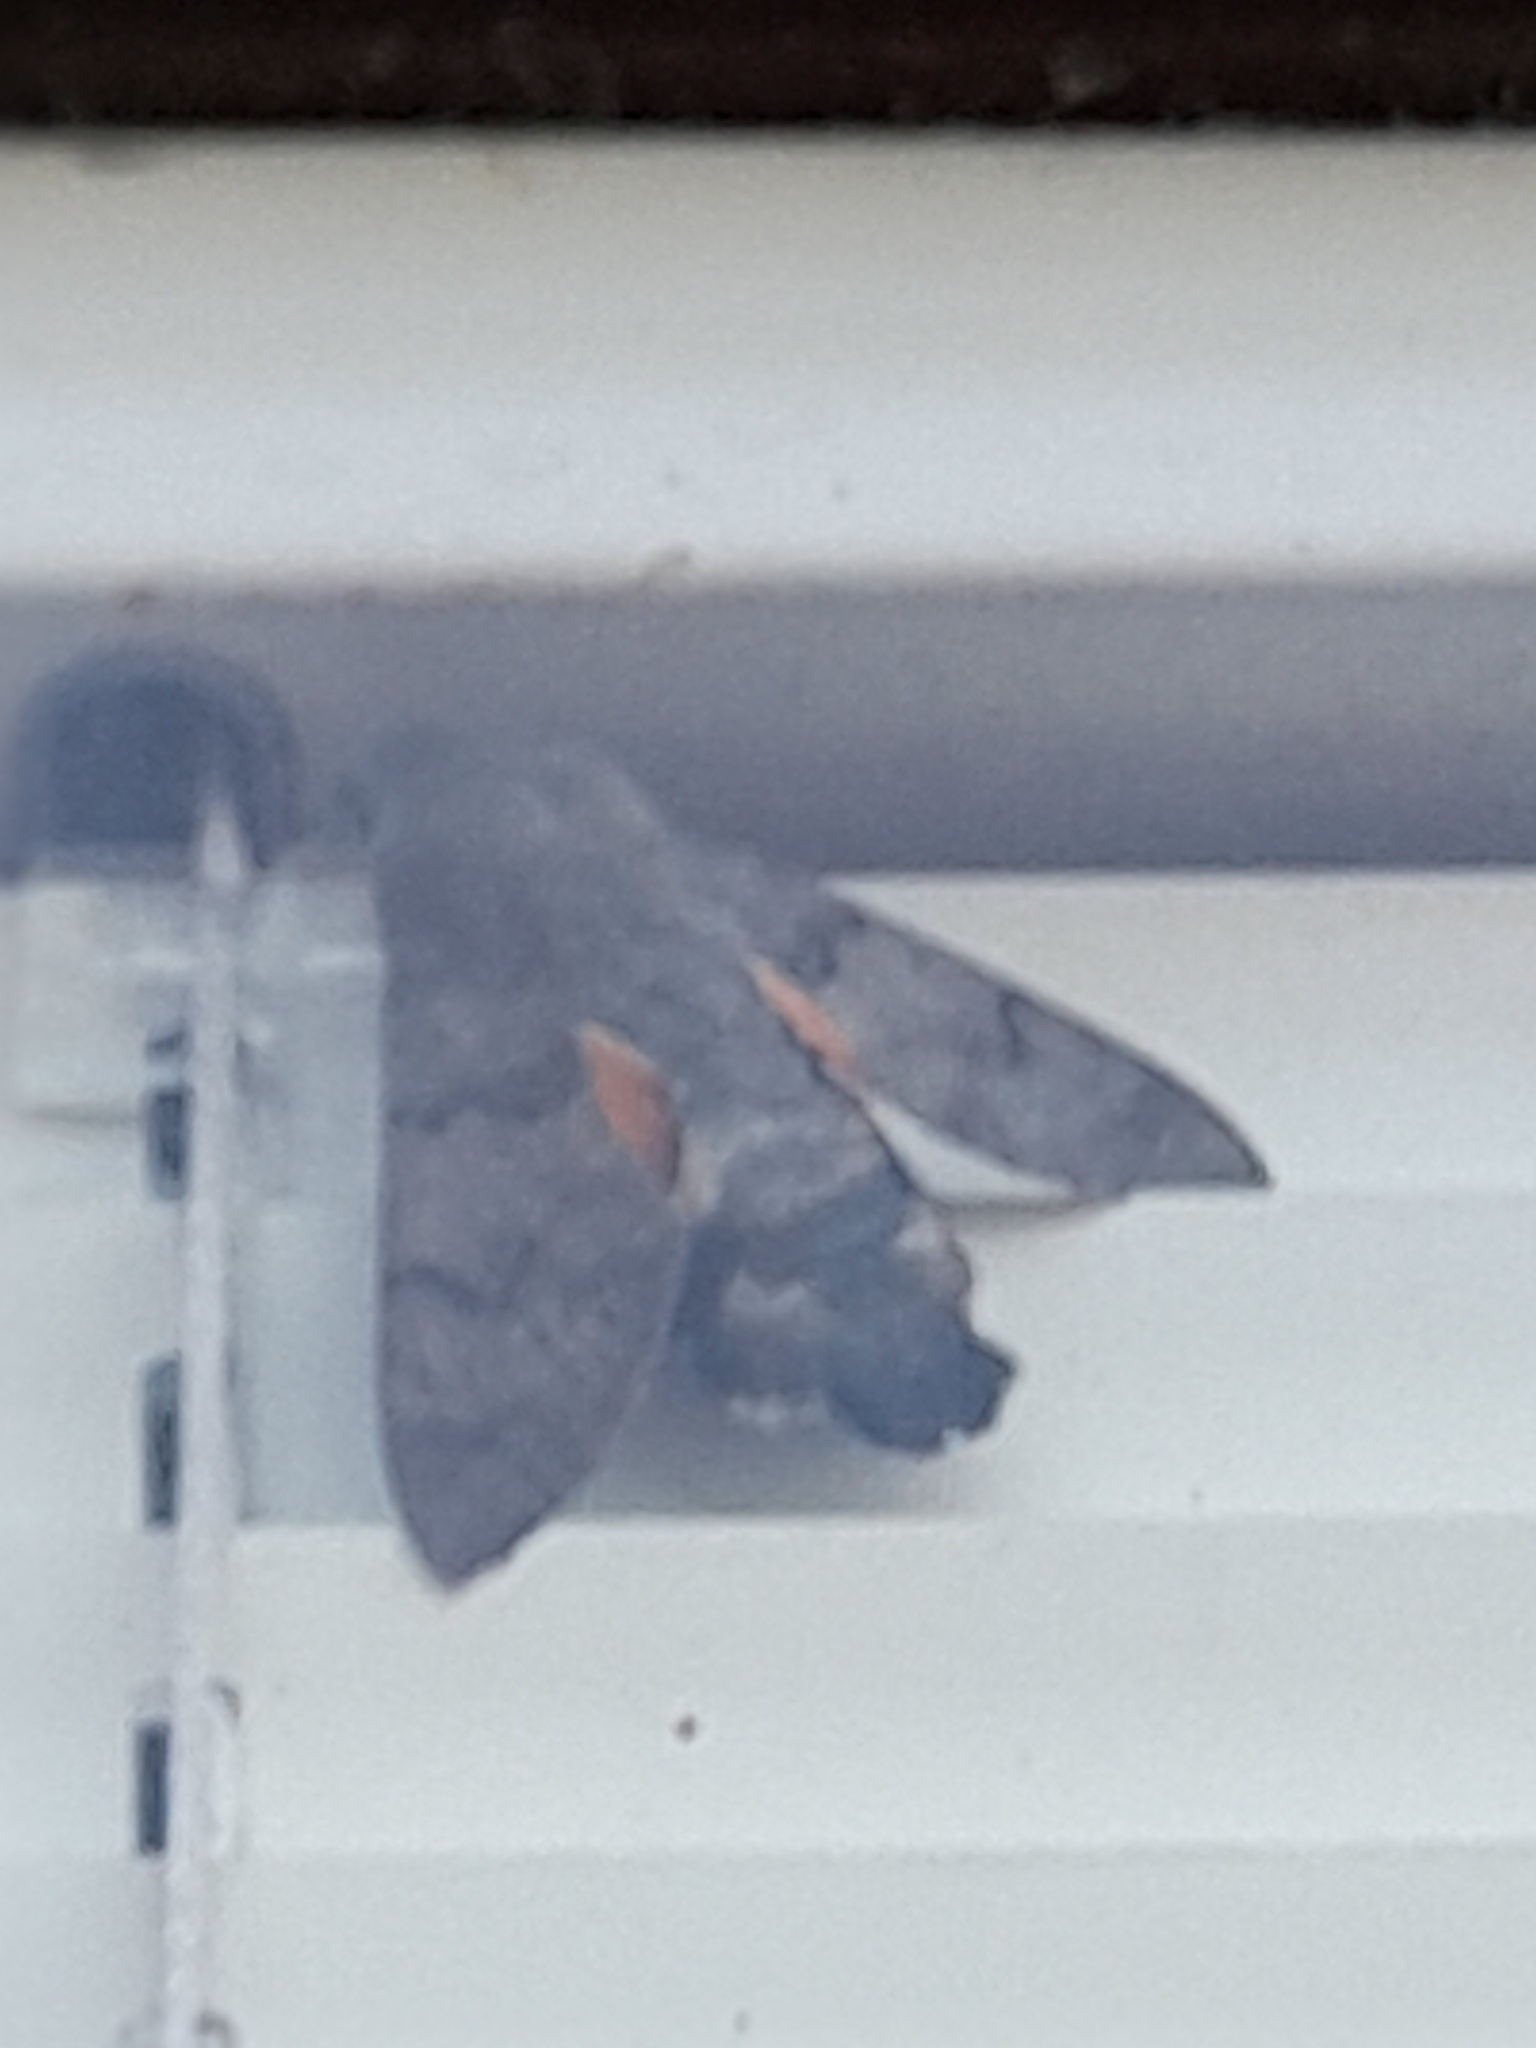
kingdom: Animalia
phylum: Arthropoda
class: Insecta
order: Lepidoptera
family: Sphingidae
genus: Macroglossum
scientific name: Macroglossum stellatarum
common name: Humming-bird hawk-moth
